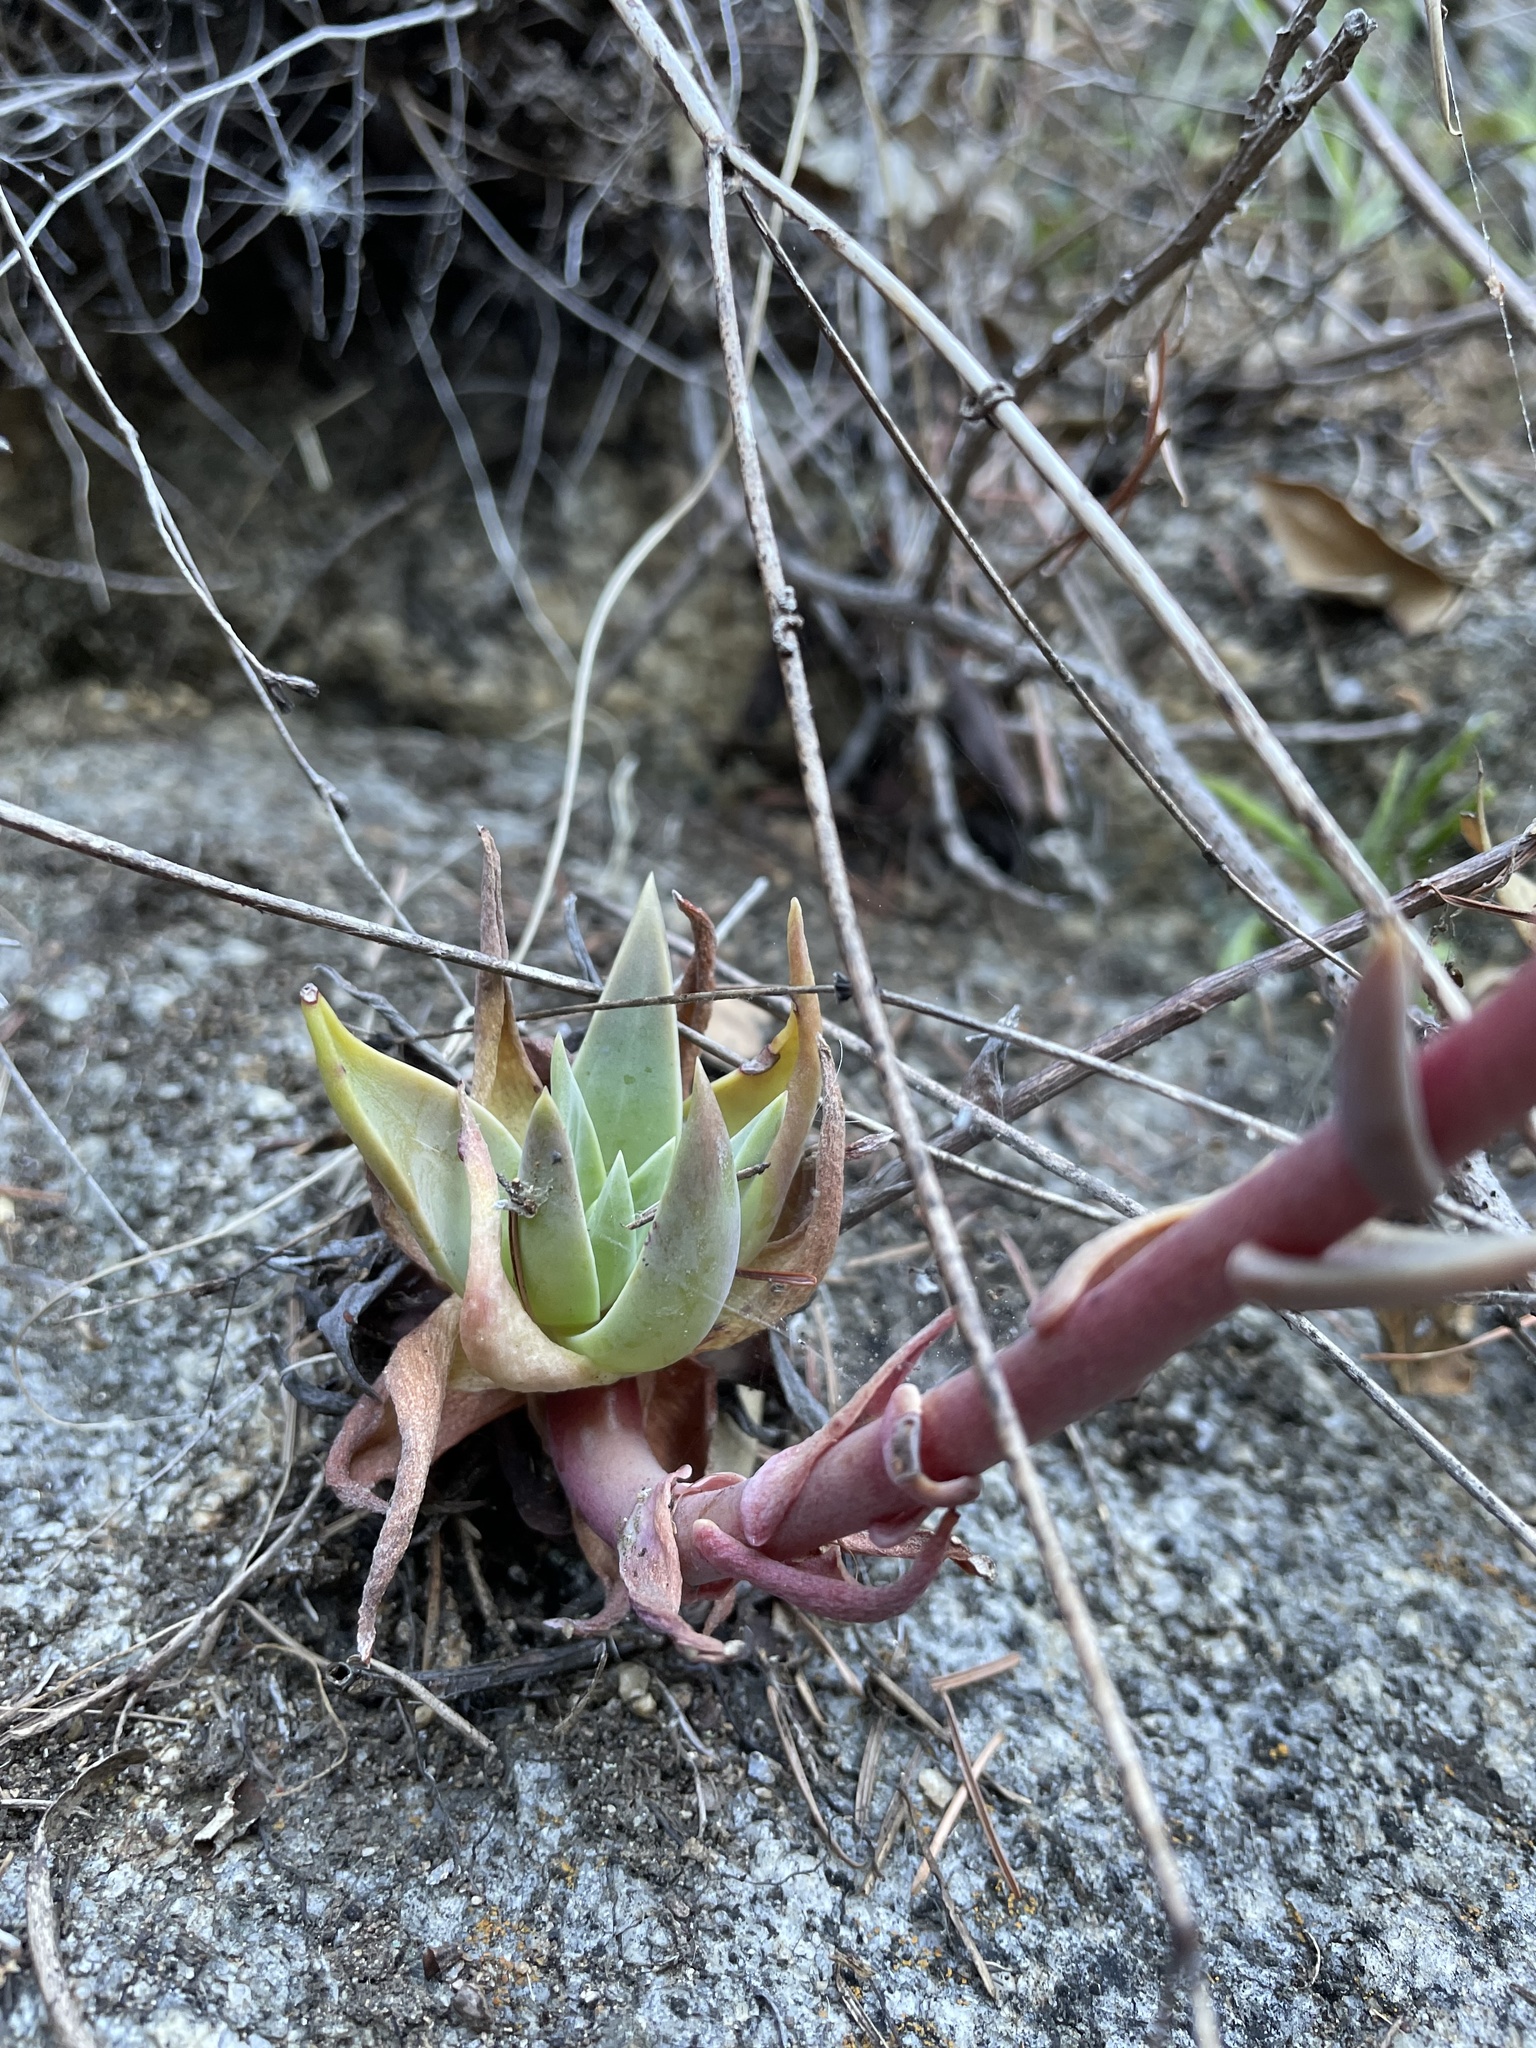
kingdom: Plantae
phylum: Tracheophyta
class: Magnoliopsida
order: Saxifragales
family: Crassulaceae
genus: Dudleya
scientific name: Dudleya caespitosa
